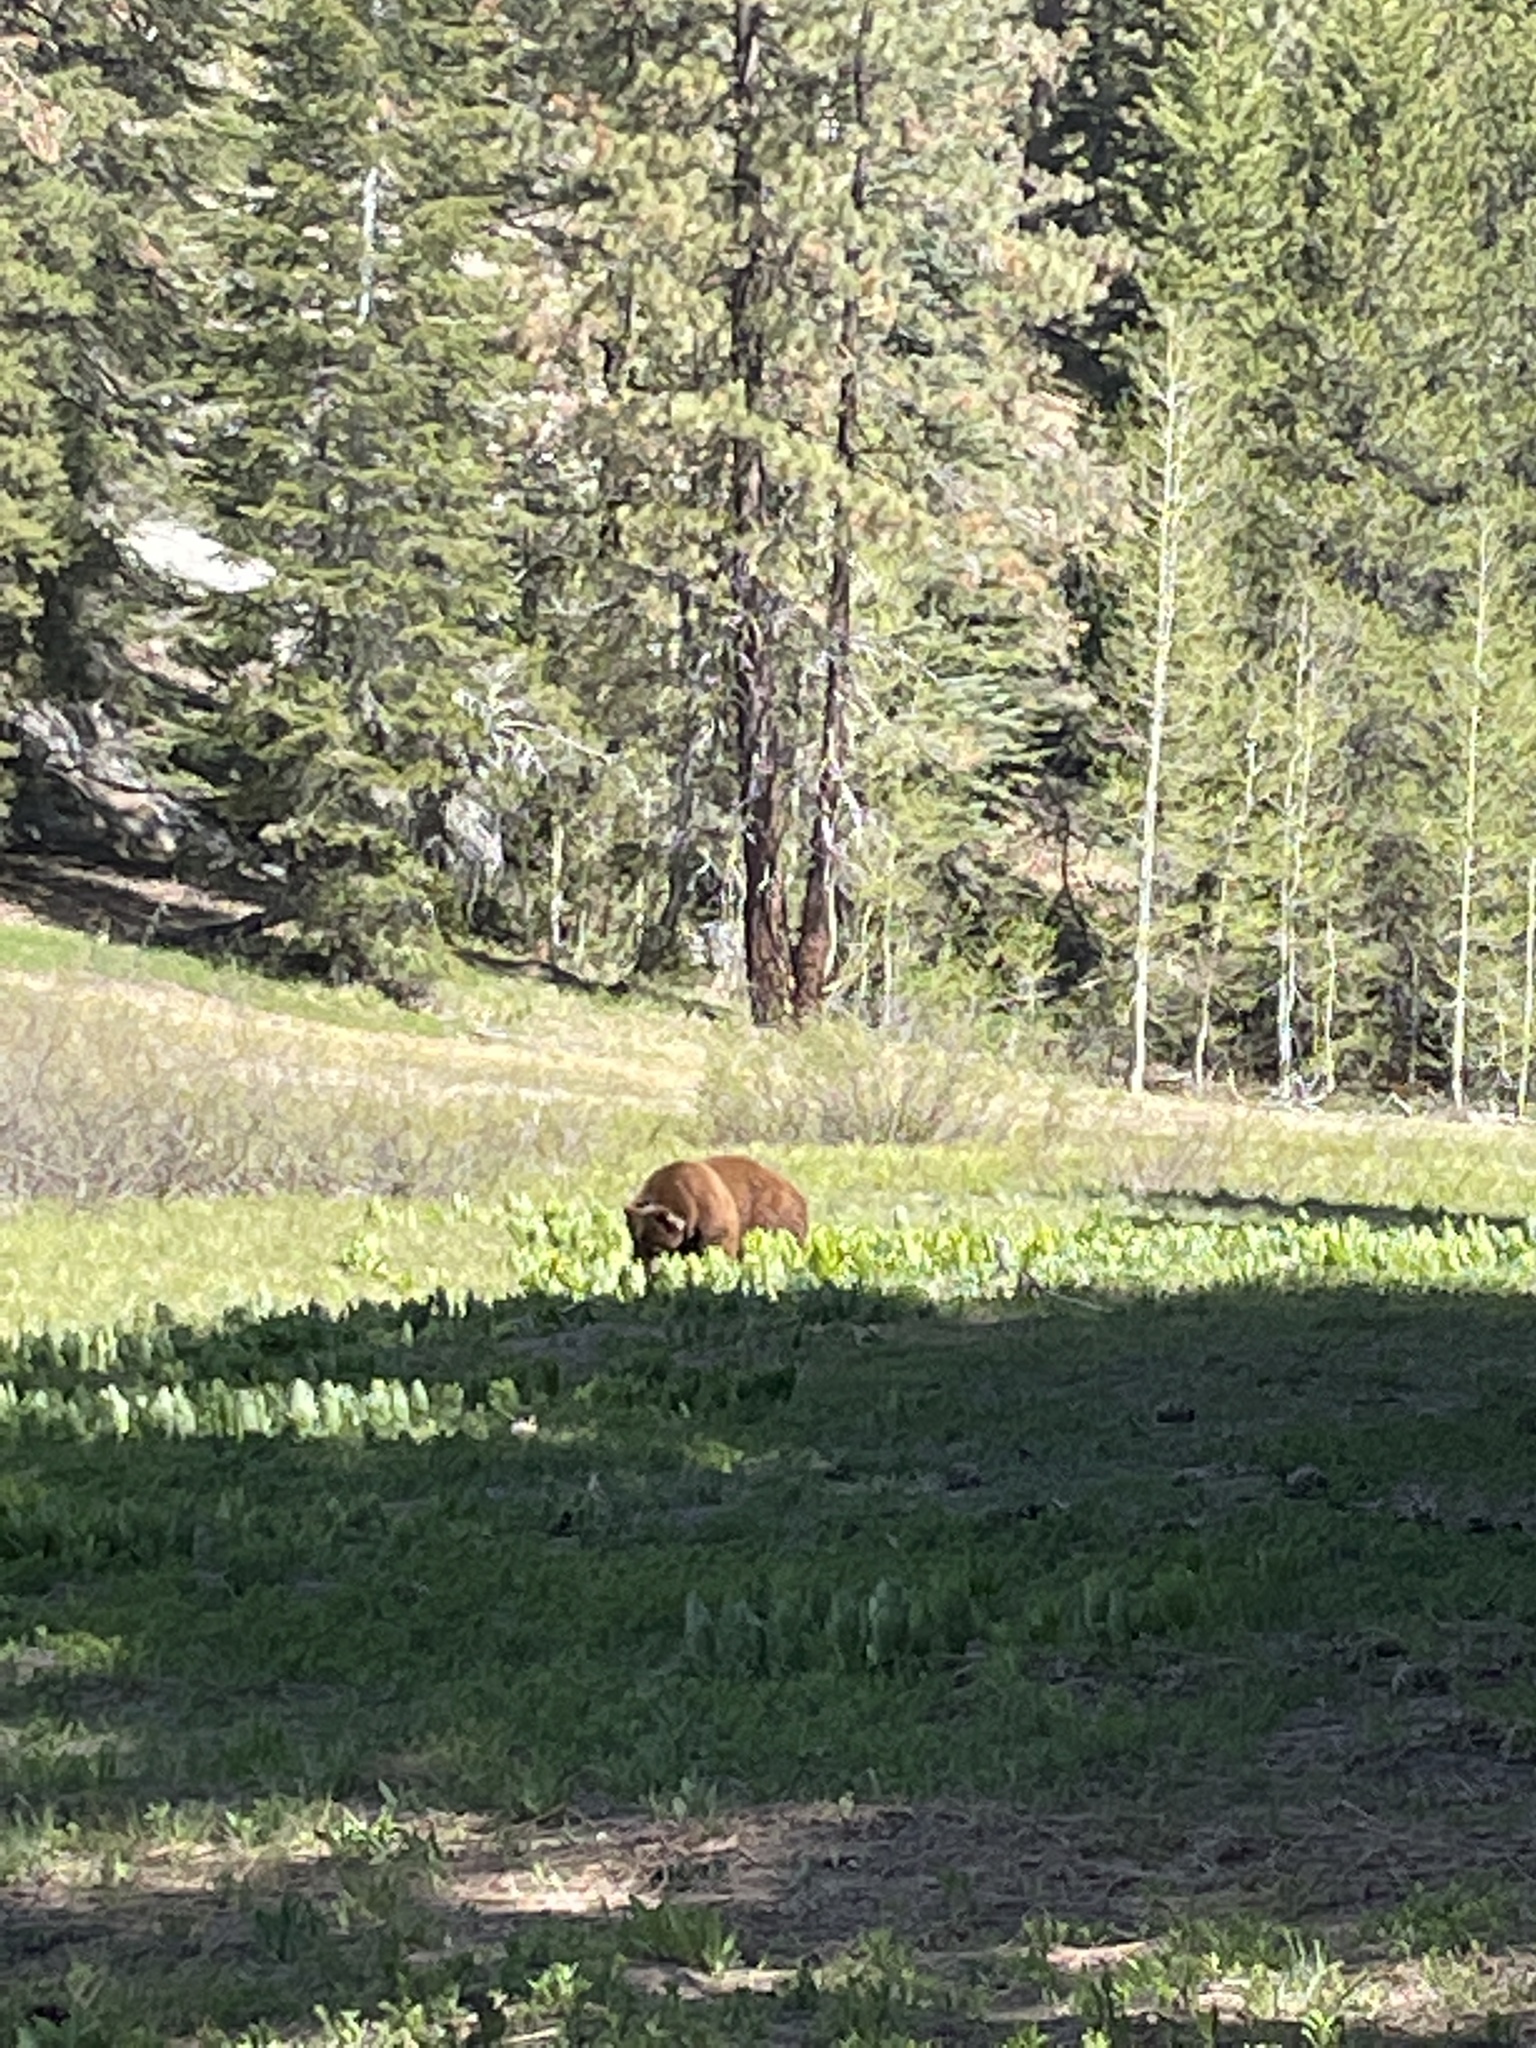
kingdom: Animalia
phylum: Chordata
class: Mammalia
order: Carnivora
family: Ursidae
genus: Ursus
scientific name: Ursus americanus
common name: American black bear
